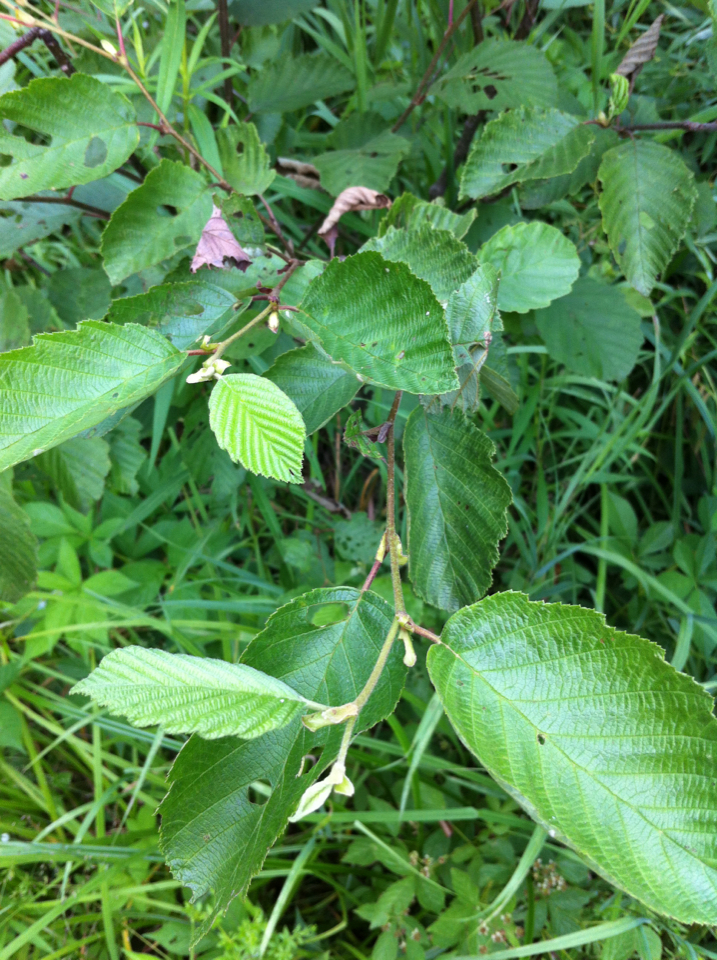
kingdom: Plantae
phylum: Tracheophyta
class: Magnoliopsida
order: Fagales
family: Betulaceae
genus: Alnus
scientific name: Alnus incana
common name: Grey alder
